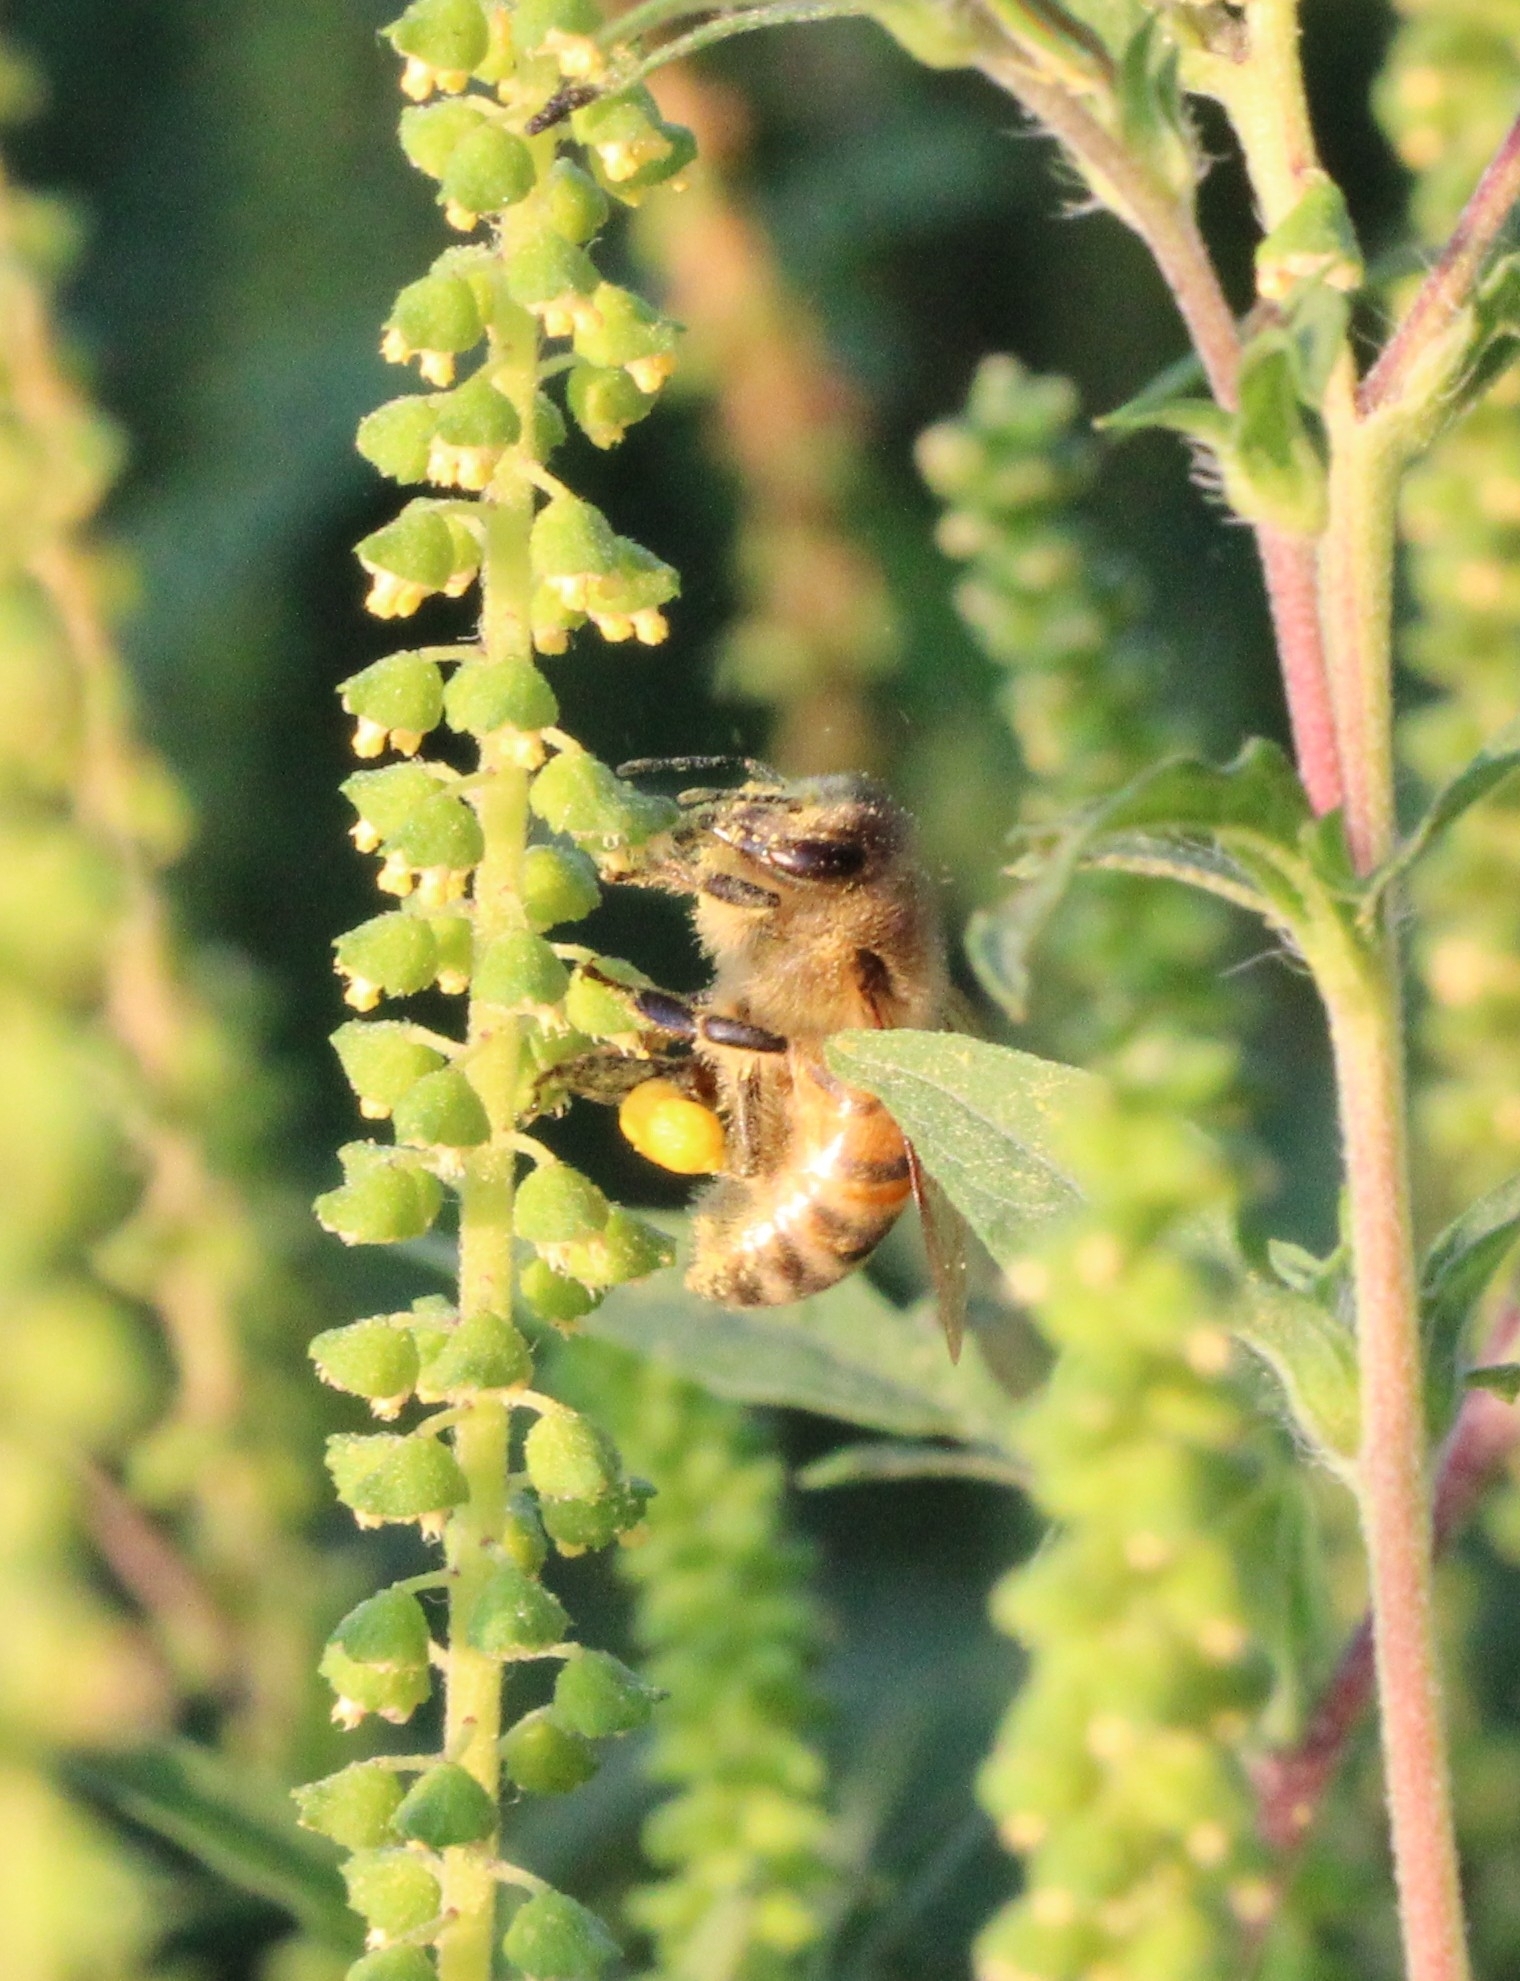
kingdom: Animalia
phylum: Arthropoda
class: Insecta
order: Hymenoptera
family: Apidae
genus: Apis
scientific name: Apis mellifera
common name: Honey bee
